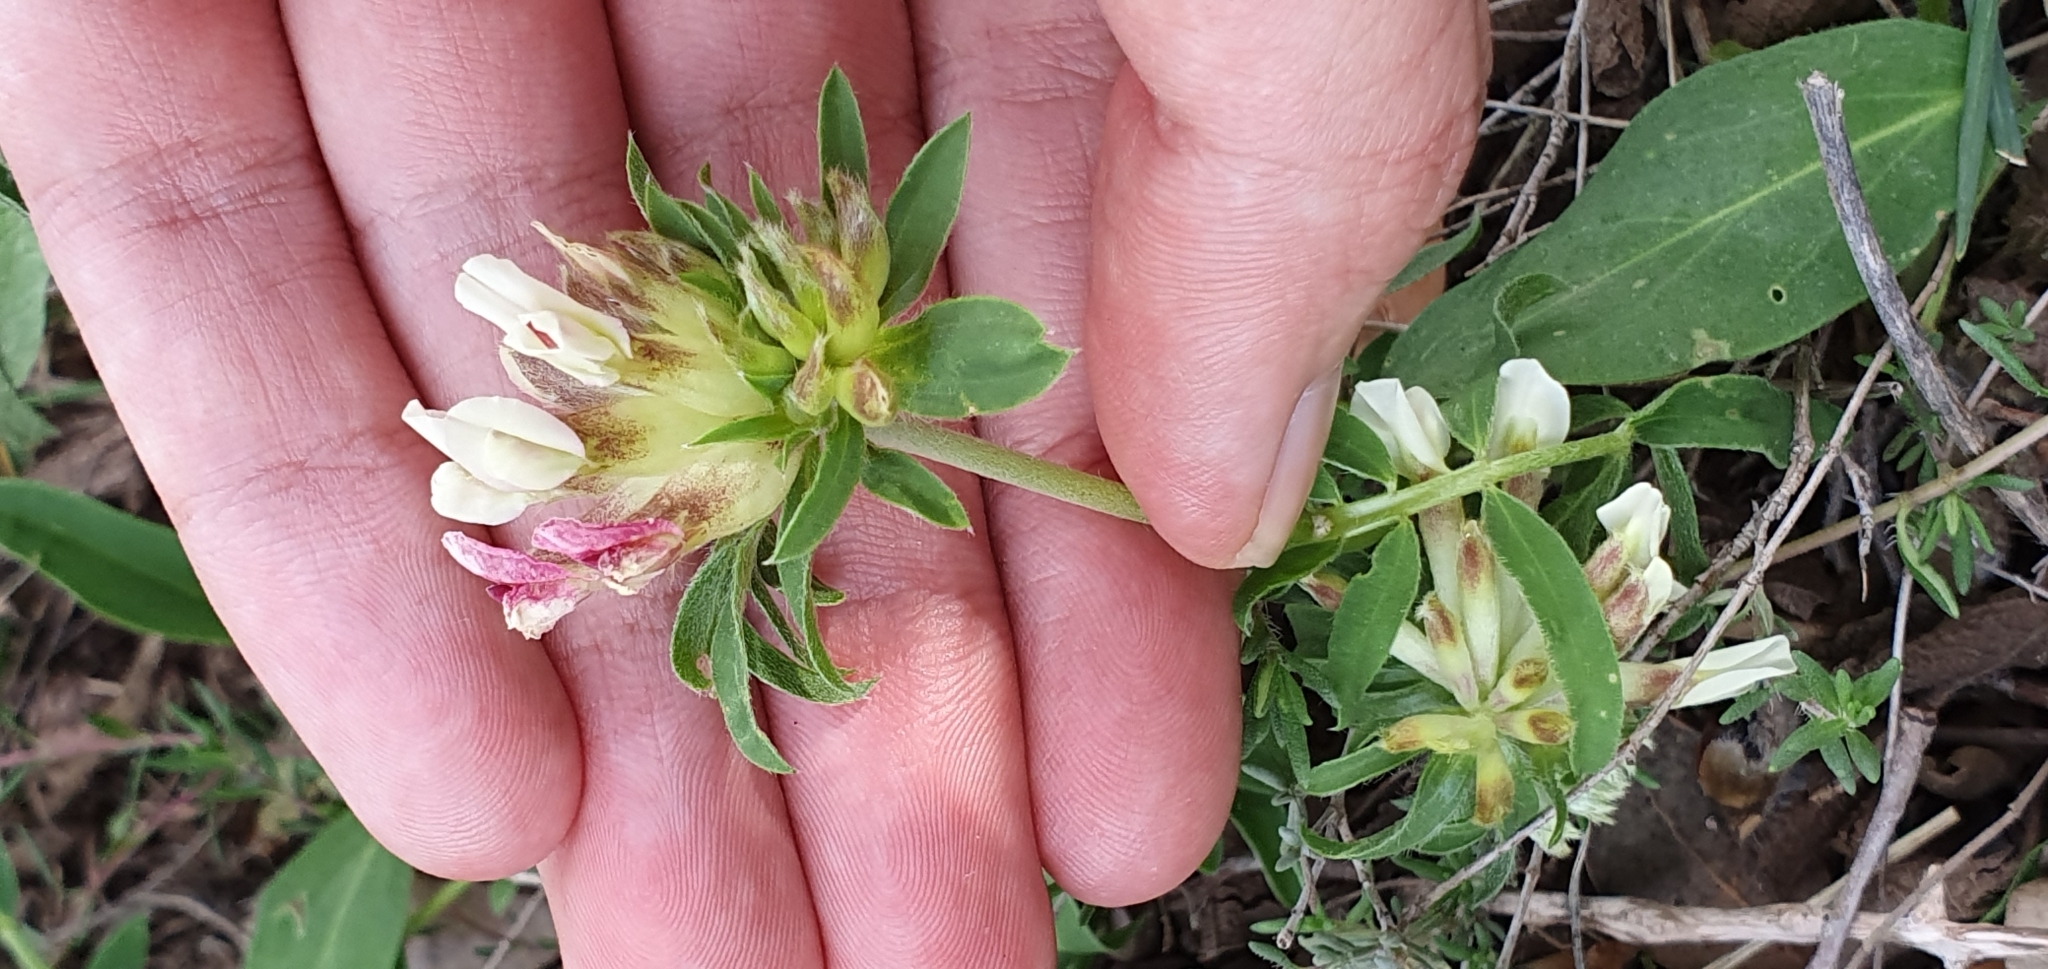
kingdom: Plantae
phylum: Tracheophyta
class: Magnoliopsida
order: Fabales
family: Fabaceae
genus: Anthyllis
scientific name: Anthyllis vulneraria
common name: Kidney vetch
